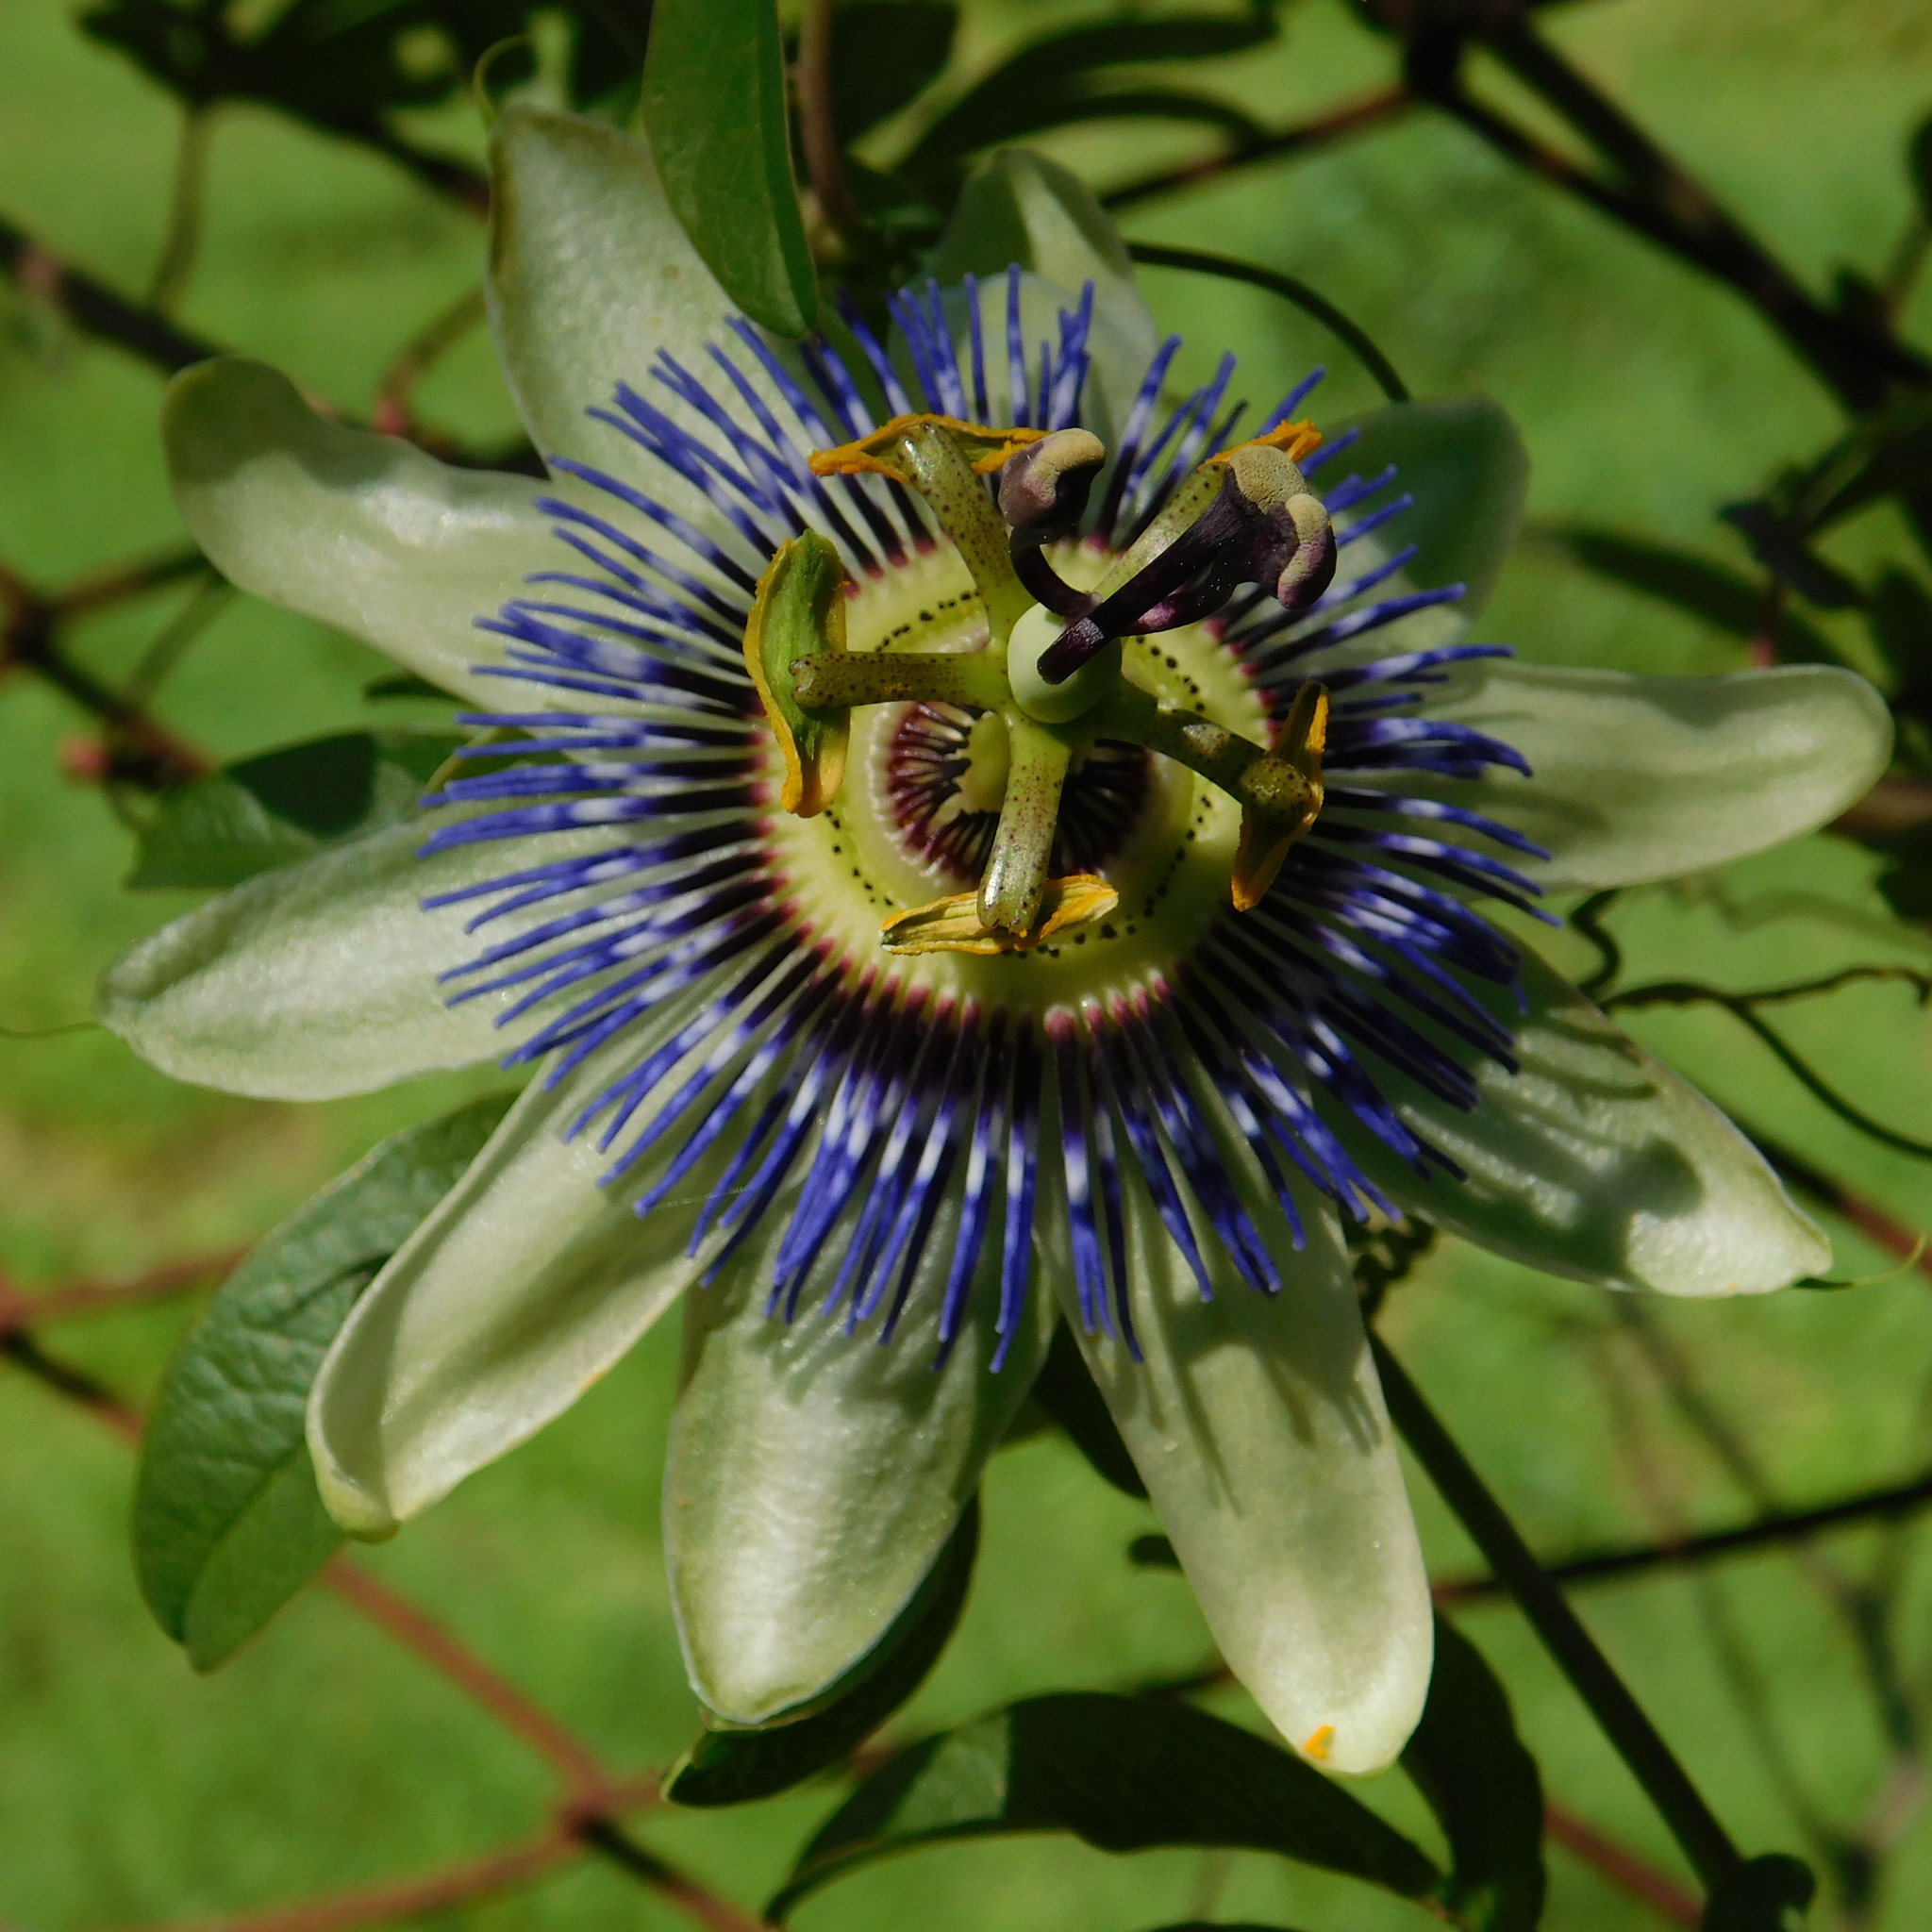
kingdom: Plantae
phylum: Tracheophyta
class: Magnoliopsida
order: Malpighiales
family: Passifloraceae
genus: Passiflora
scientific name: Passiflora caerulea
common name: Blue passionflower
